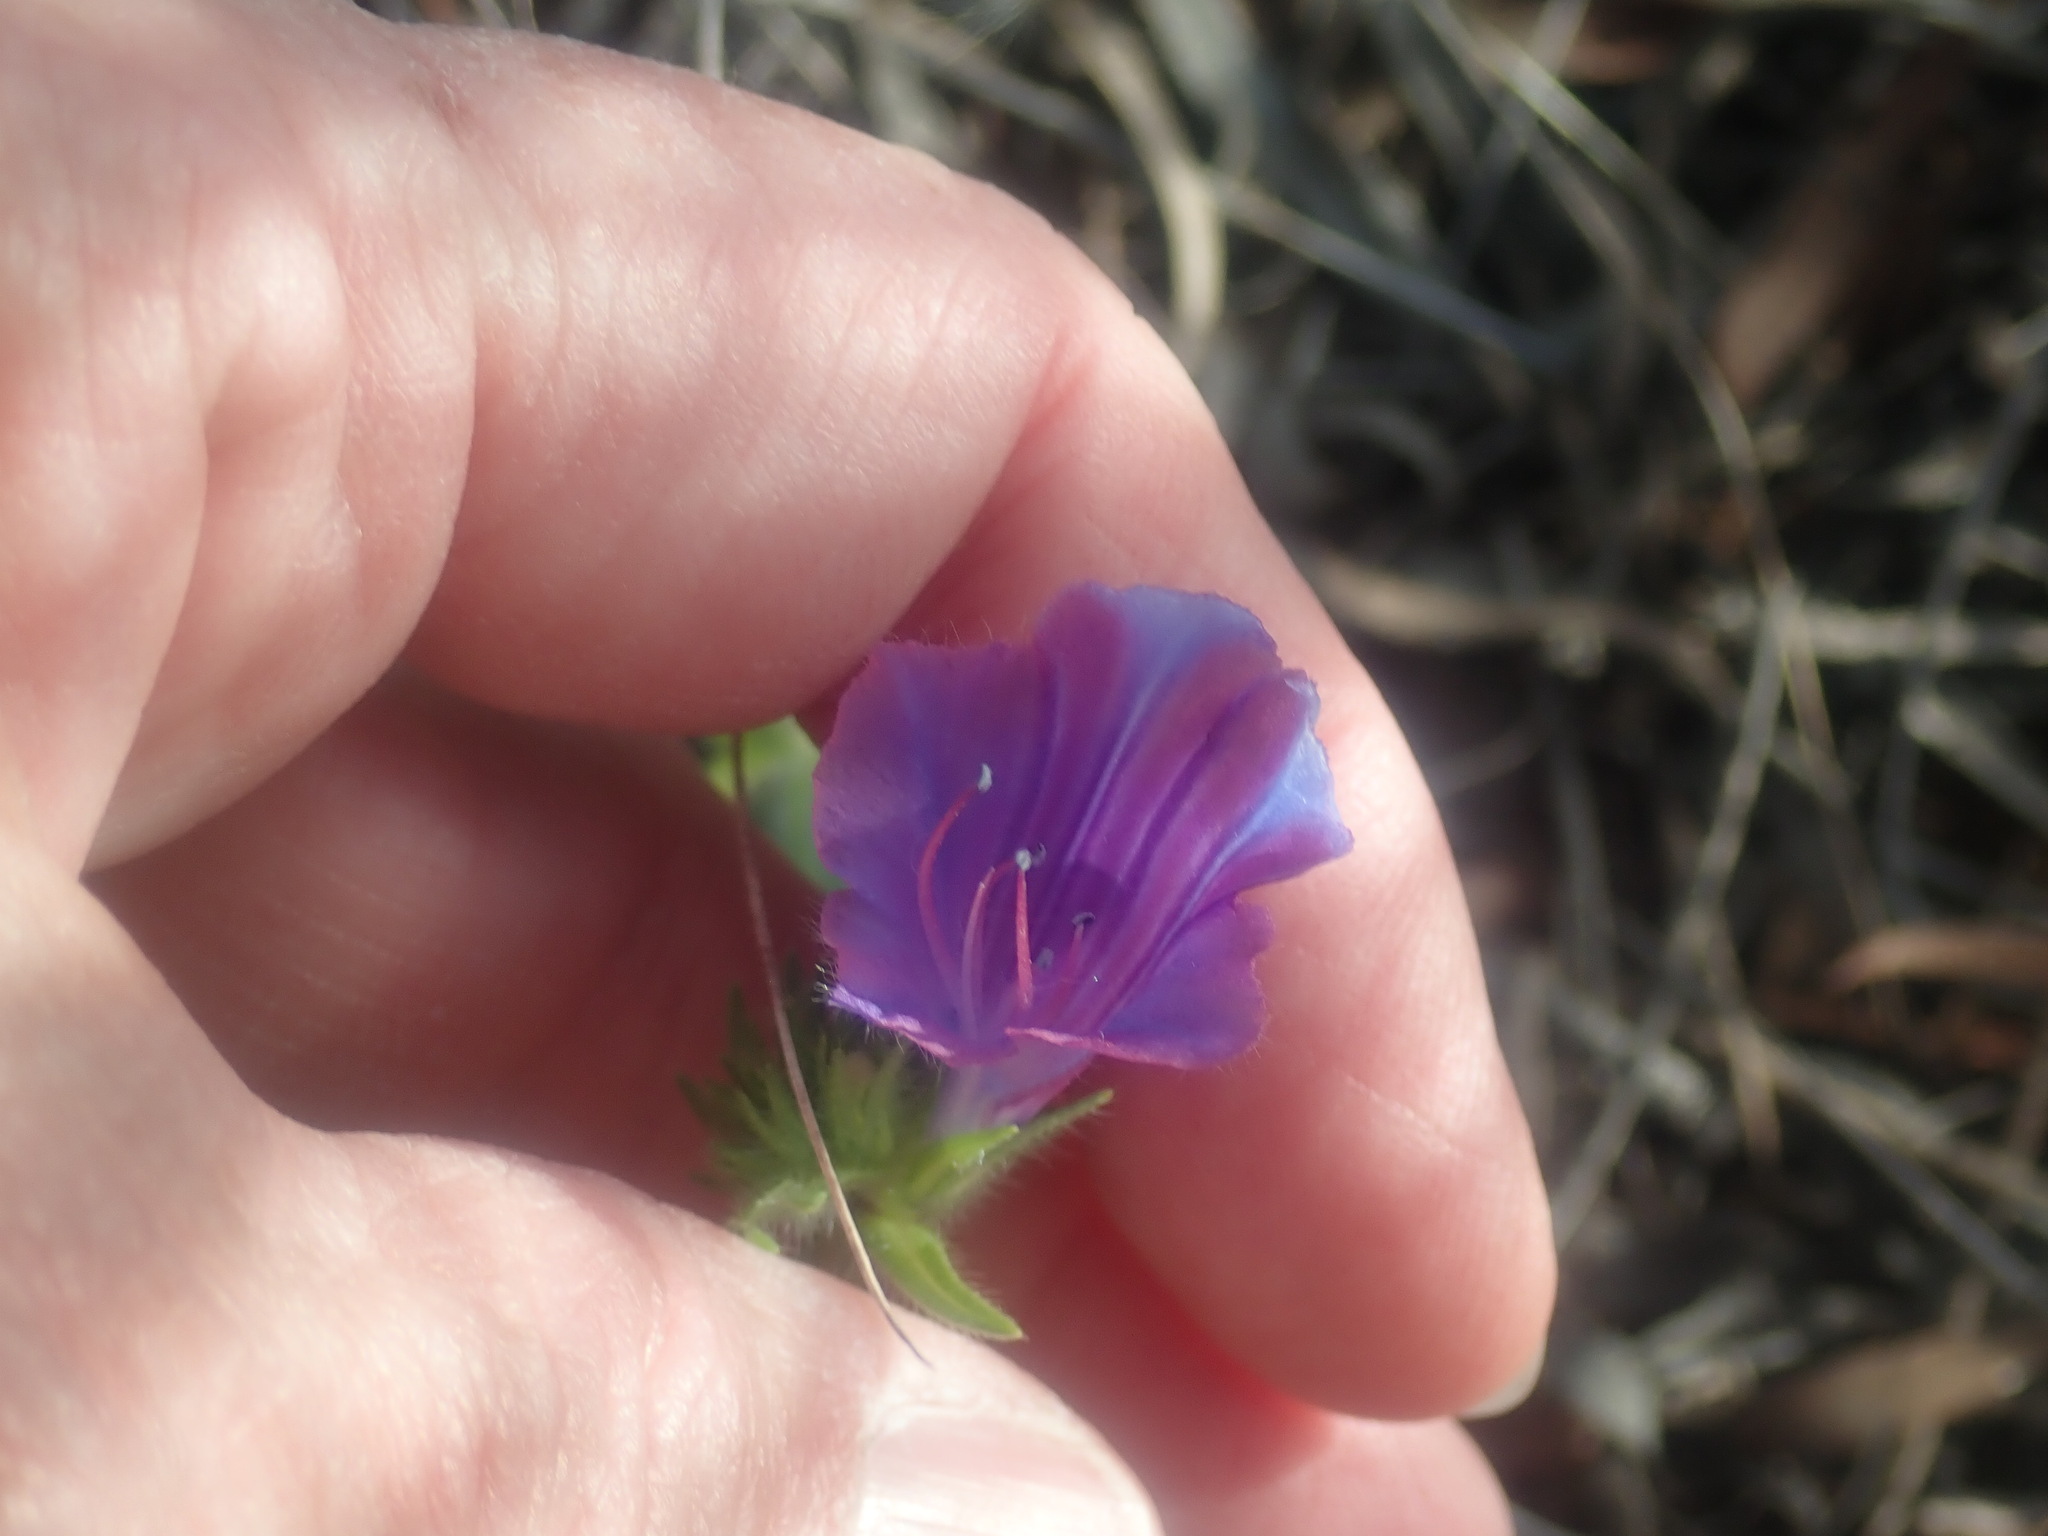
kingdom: Plantae
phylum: Tracheophyta
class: Magnoliopsida
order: Boraginales
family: Boraginaceae
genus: Echium
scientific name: Echium plantagineum
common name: Purple viper's-bugloss
